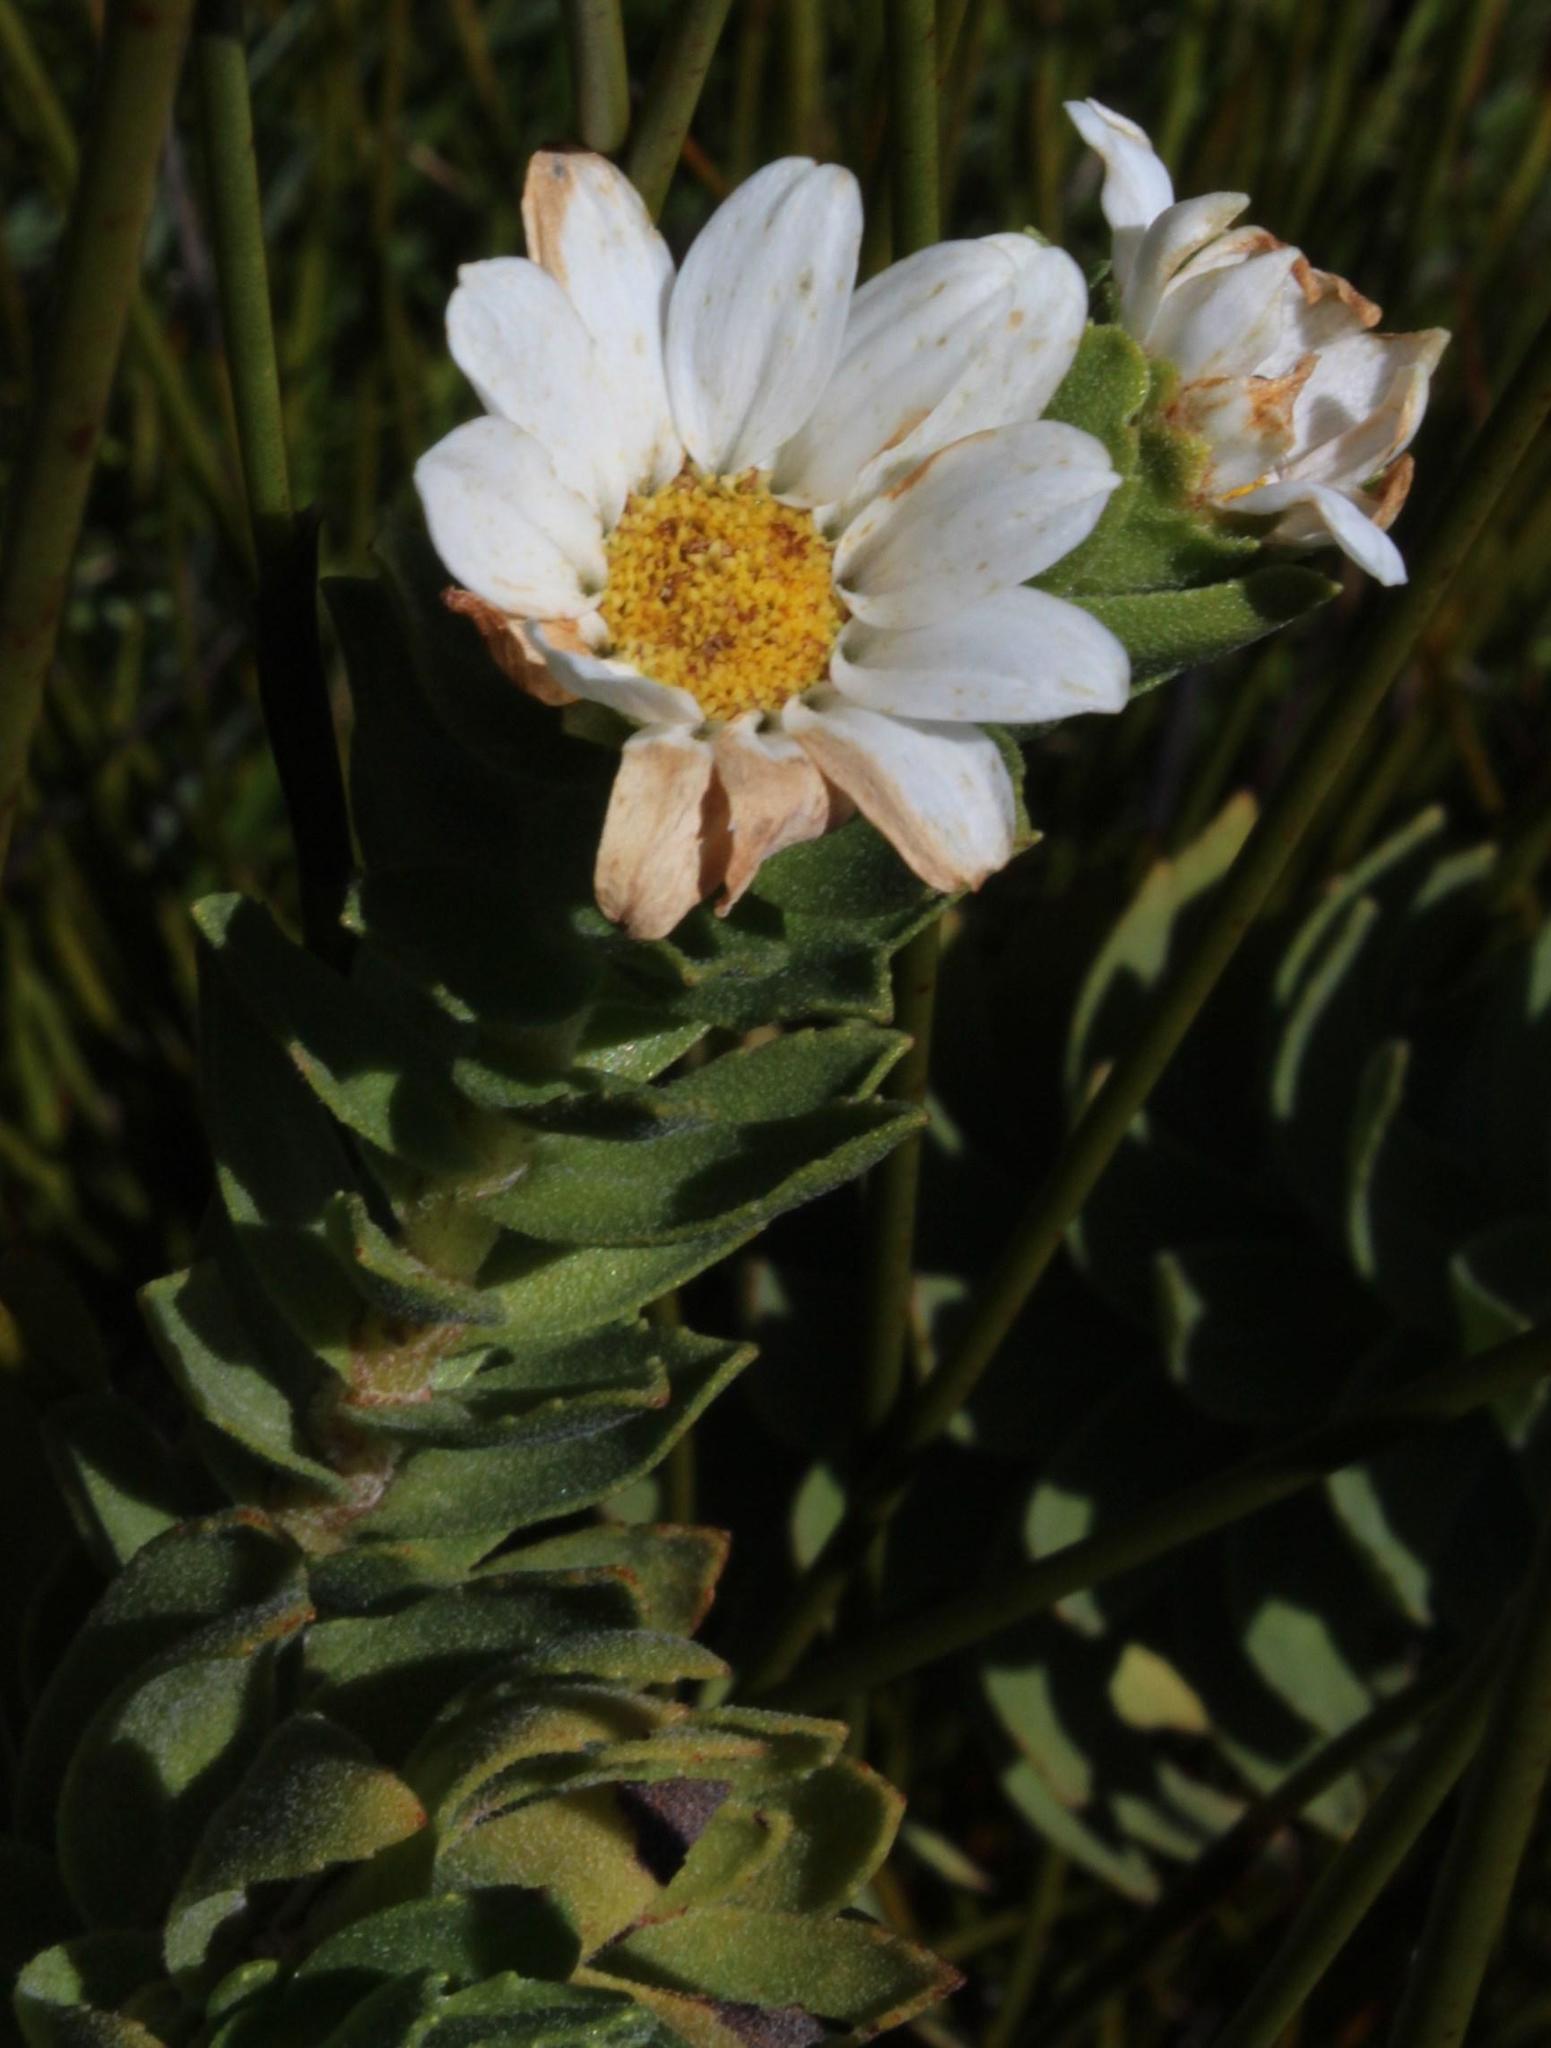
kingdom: Plantae
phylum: Tracheophyta
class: Magnoliopsida
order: Asterales
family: Asteraceae
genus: Osmitopsis
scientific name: Osmitopsis asteriscoides
